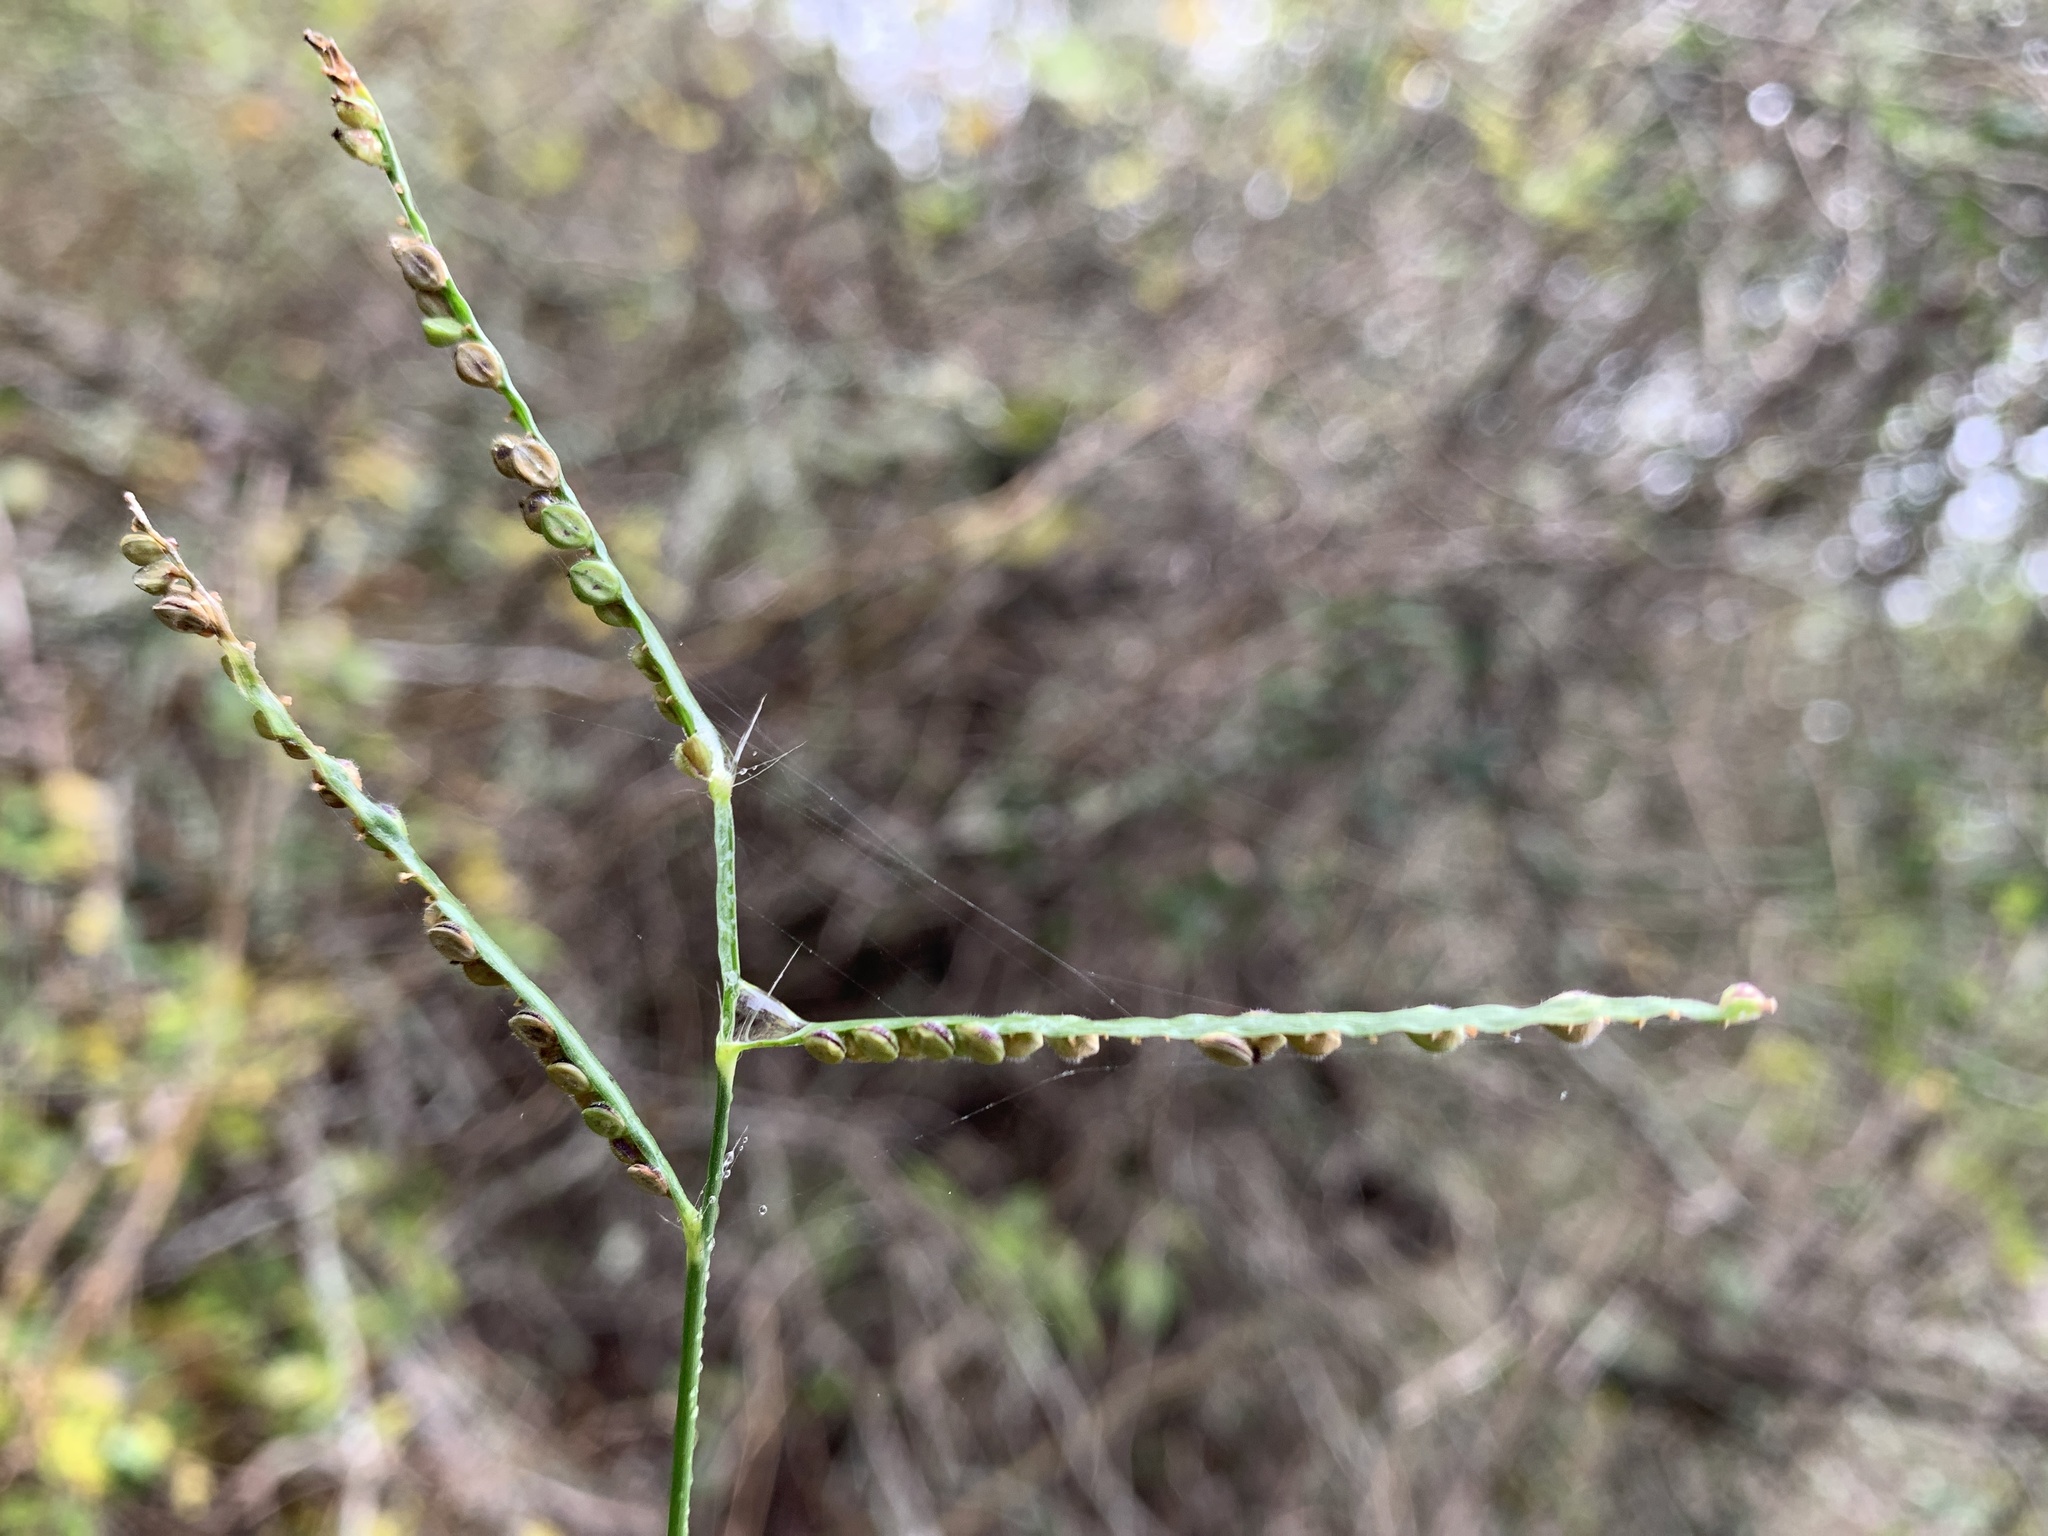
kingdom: Plantae
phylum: Tracheophyta
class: Liliopsida
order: Poales
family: Poaceae
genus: Paspalum
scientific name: Paspalum pubiflorum
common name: Hairy-seed paspalum
